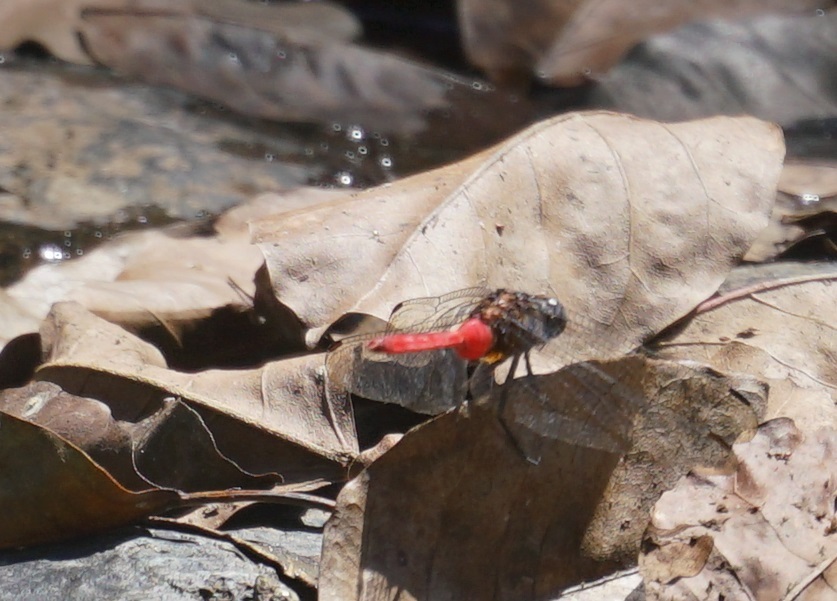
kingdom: Animalia
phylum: Arthropoda
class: Insecta
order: Odonata
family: Libellulidae
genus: Orthetrum
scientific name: Orthetrum villosovittatum
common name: Firery skimmer
